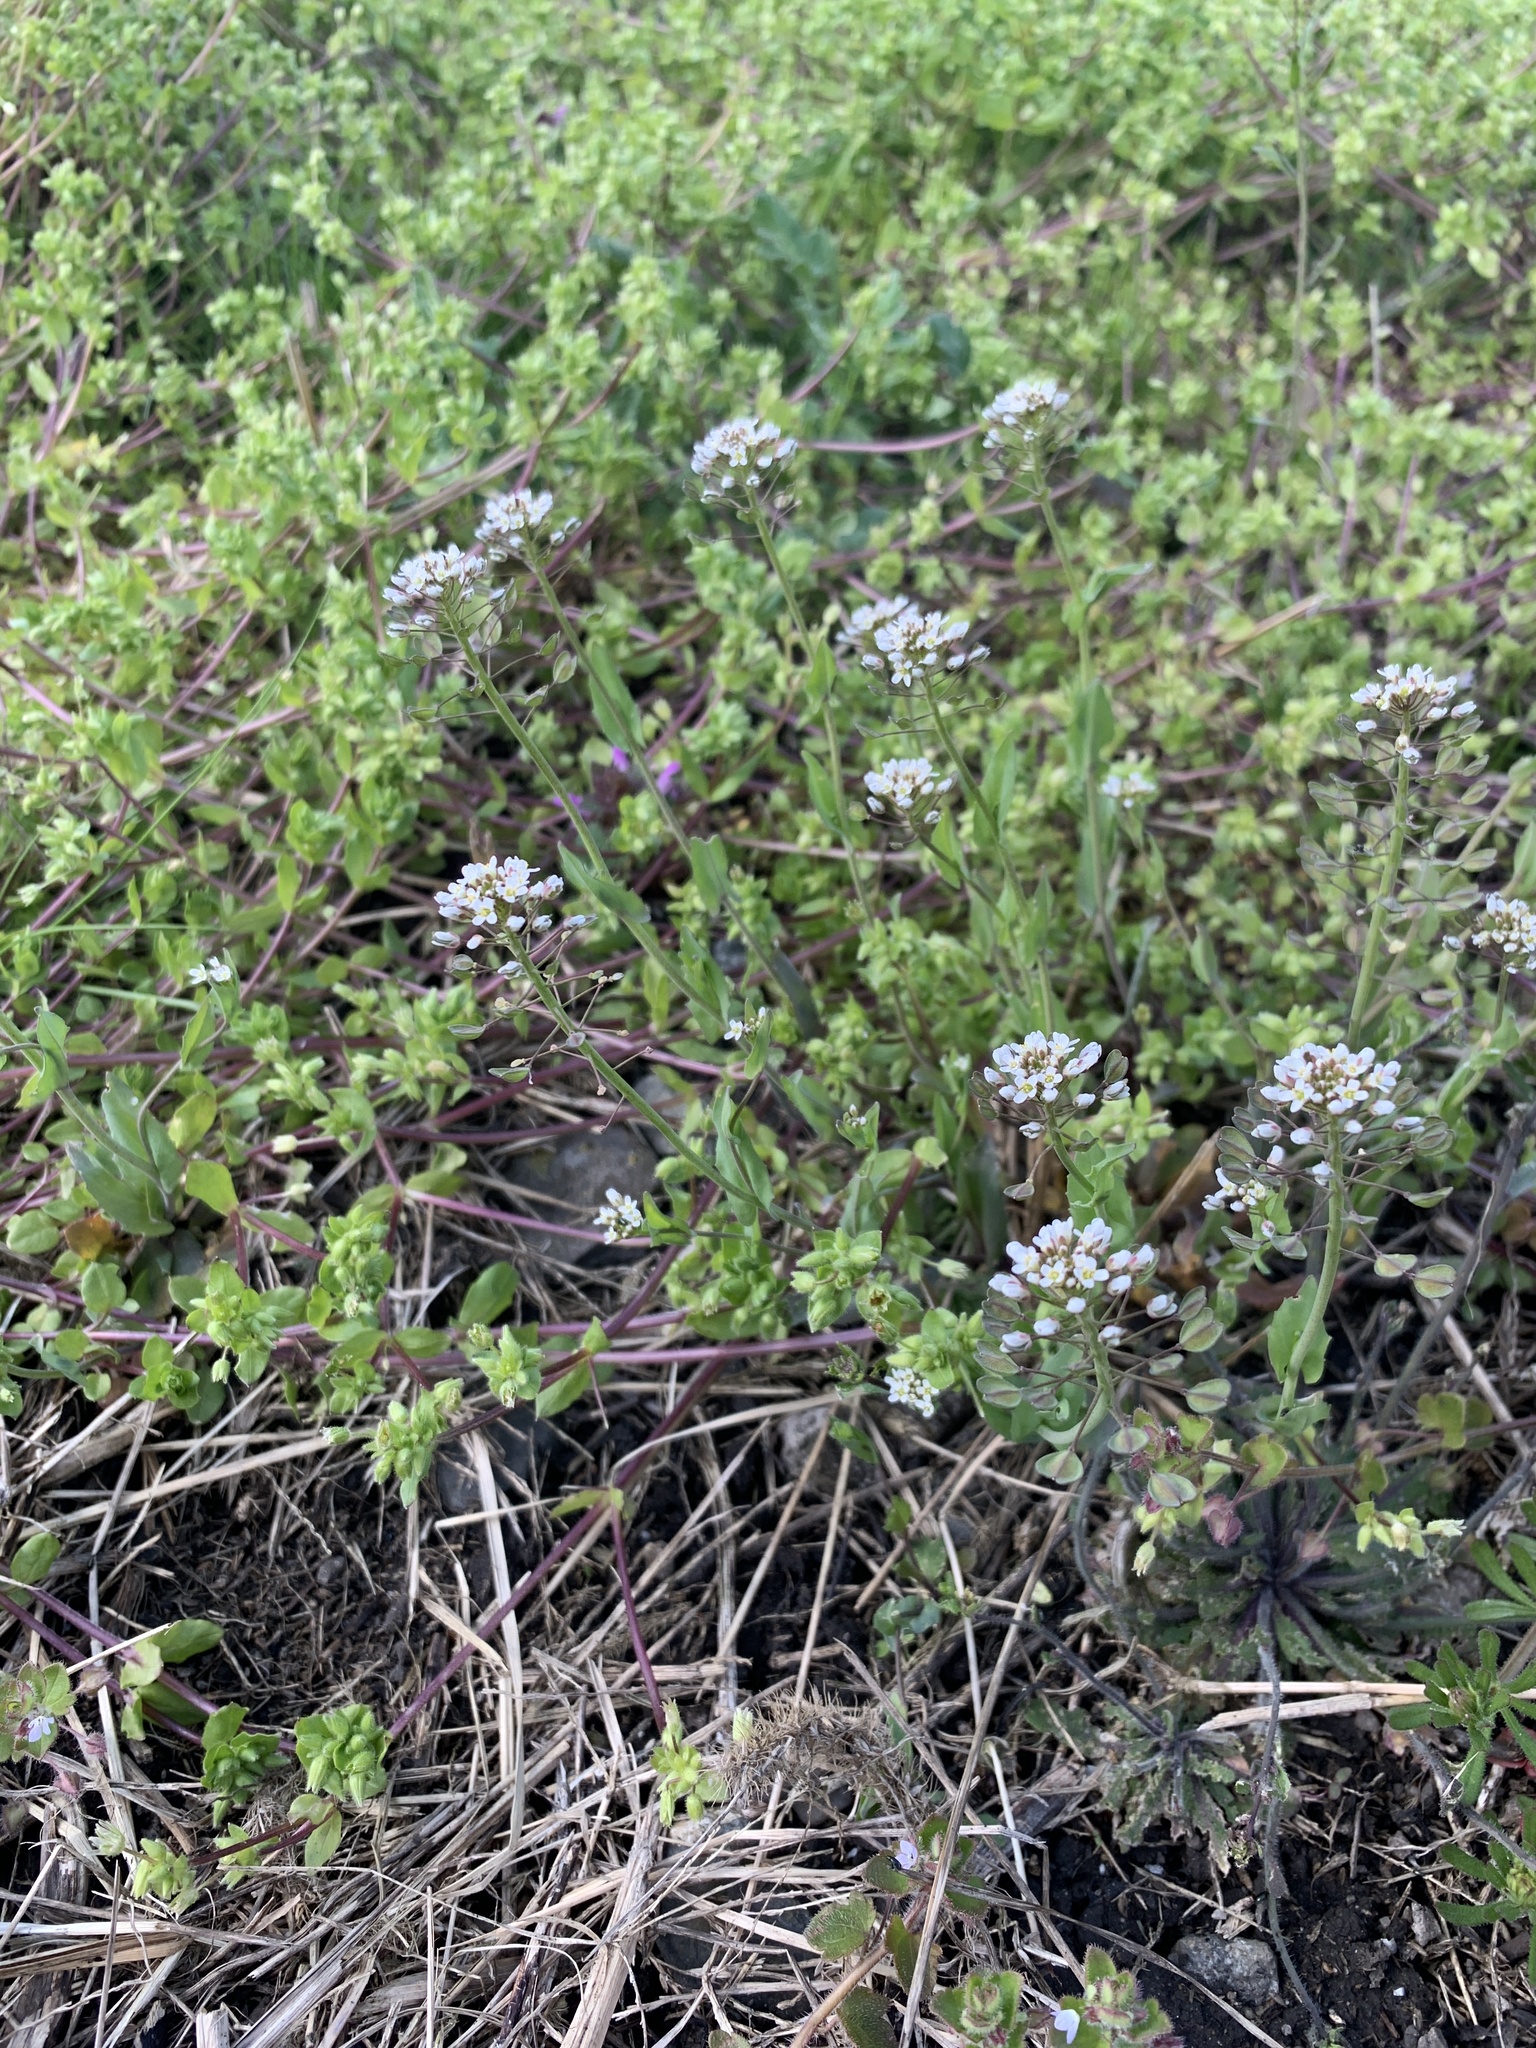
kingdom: Plantae
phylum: Tracheophyta
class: Magnoliopsida
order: Brassicales
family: Brassicaceae
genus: Noccaea
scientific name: Noccaea perfoliata
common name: Perfoliate pennycress
